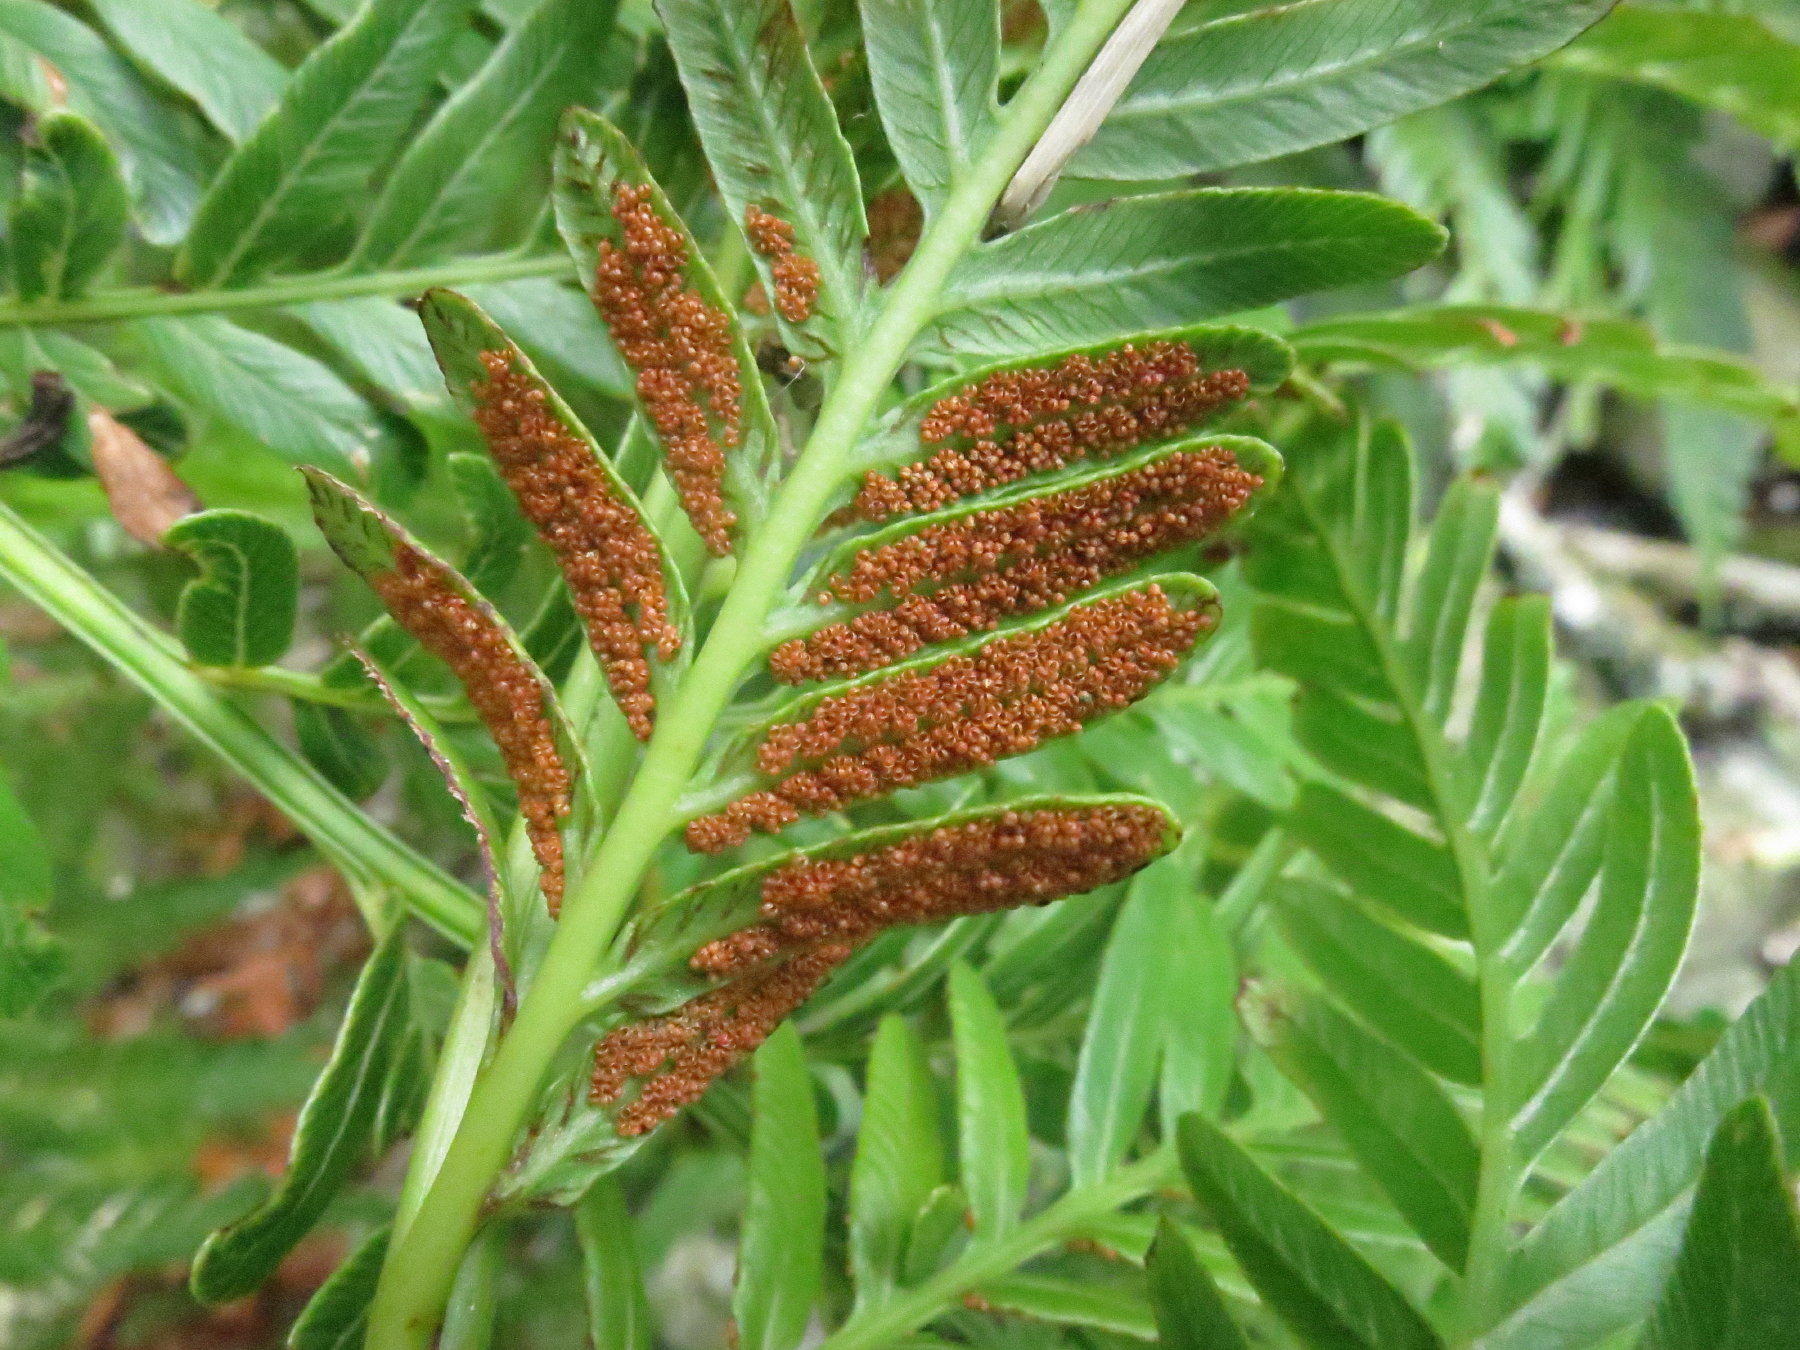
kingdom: Plantae
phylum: Tracheophyta
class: Polypodiopsida
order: Osmundales
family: Osmundaceae
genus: Todea
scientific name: Todea barbara
